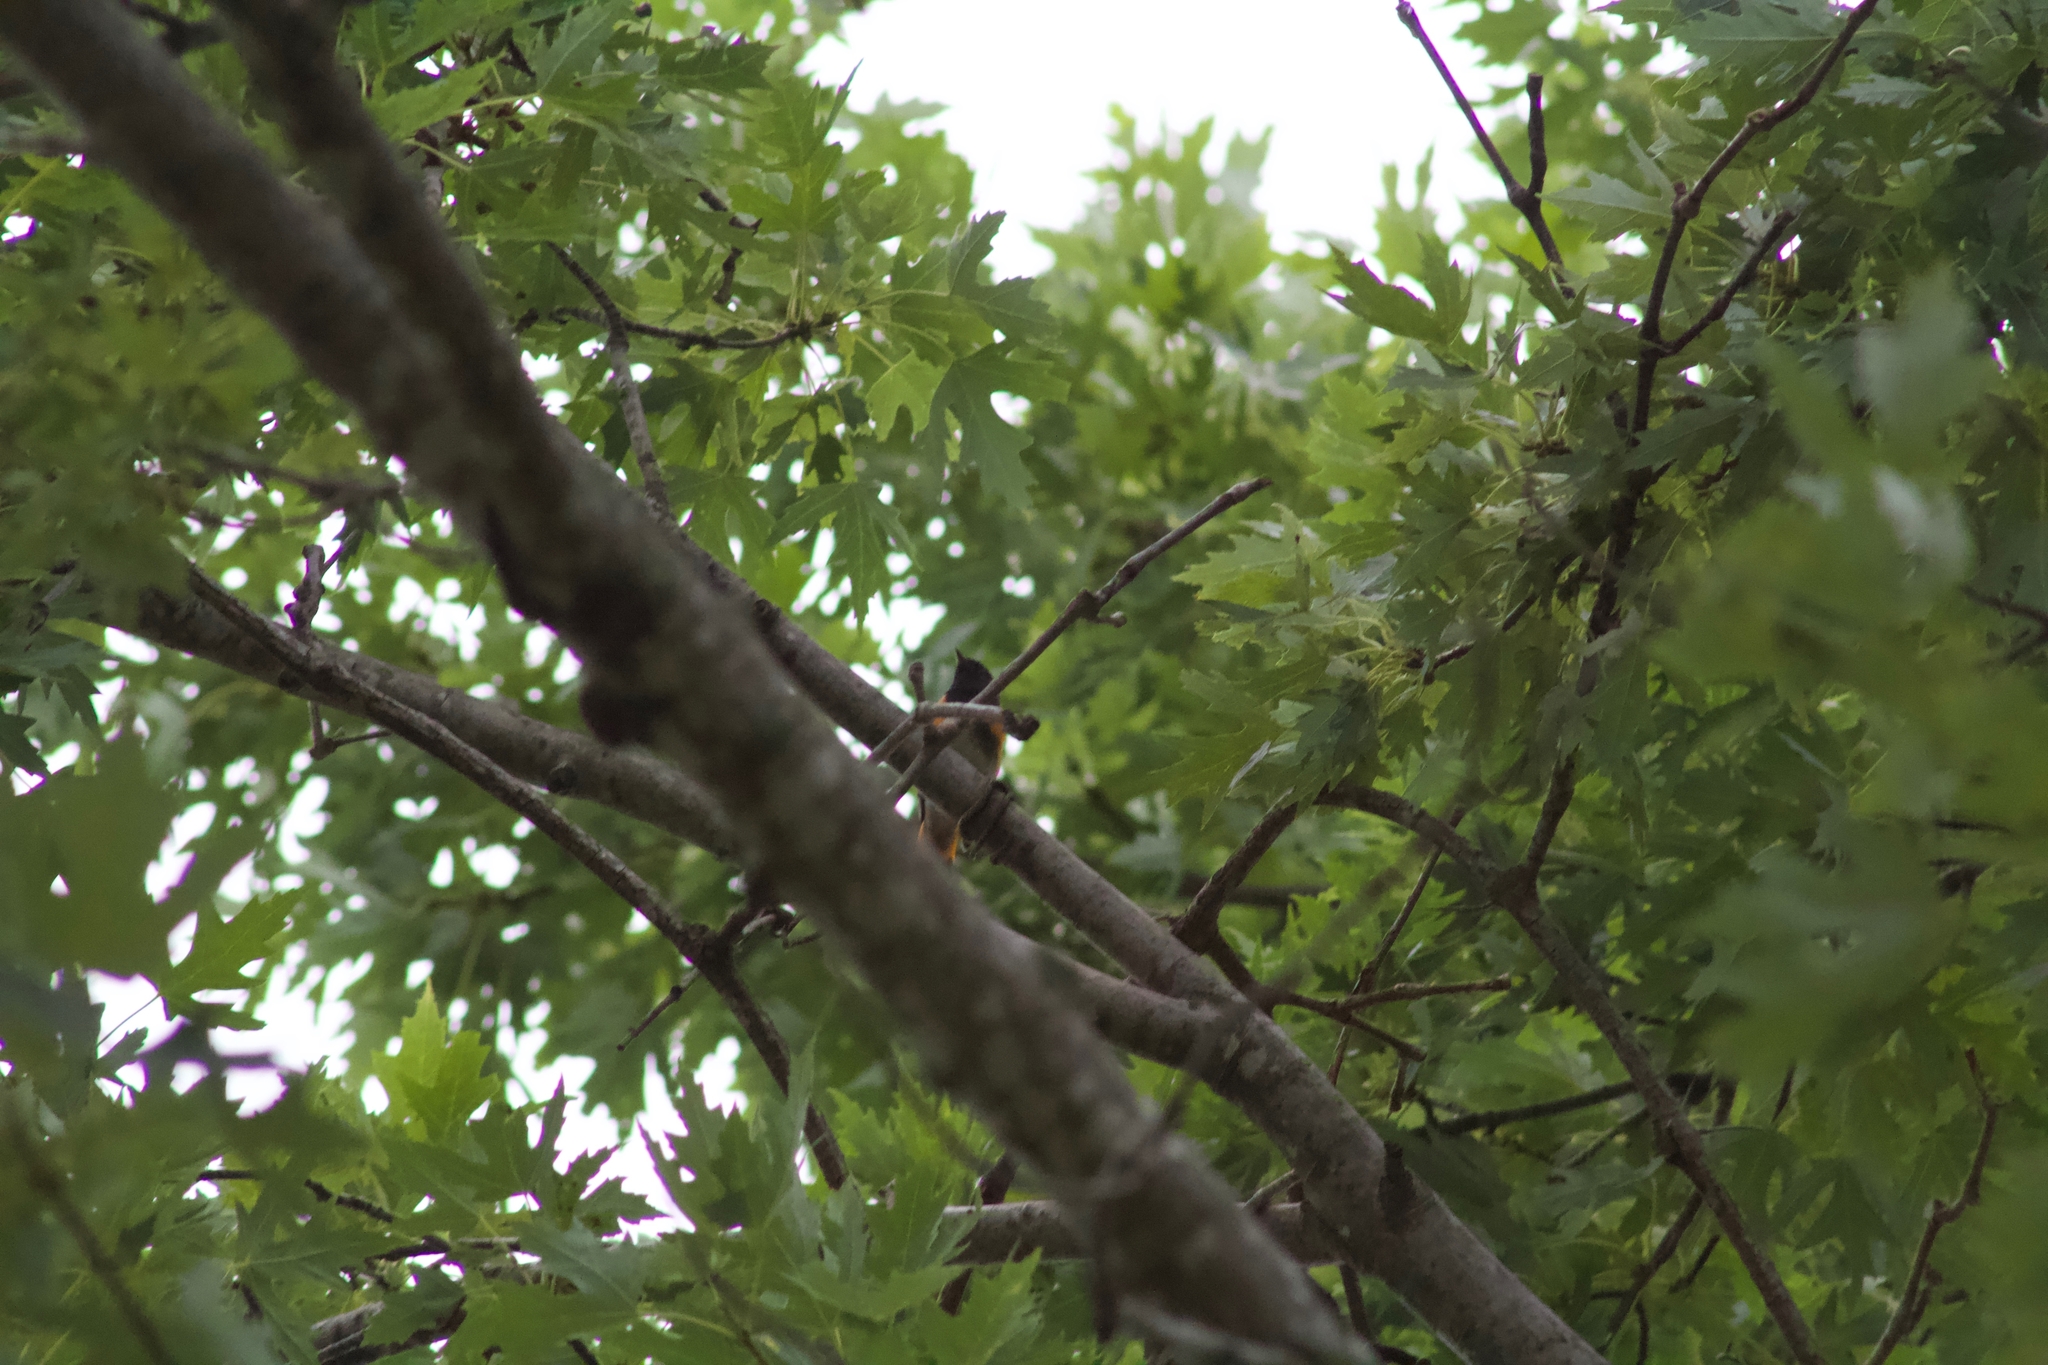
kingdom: Animalia
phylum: Chordata
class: Aves
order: Passeriformes
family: Parulidae
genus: Setophaga
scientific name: Setophaga ruticilla
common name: American redstart
